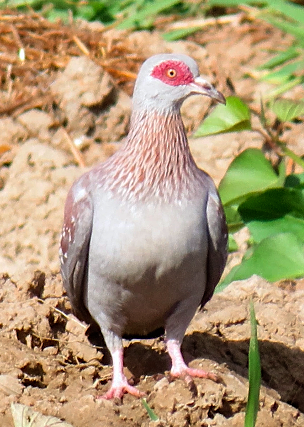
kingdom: Animalia
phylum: Chordata
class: Aves
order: Columbiformes
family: Columbidae
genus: Columba
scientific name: Columba guinea
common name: Speckled pigeon
